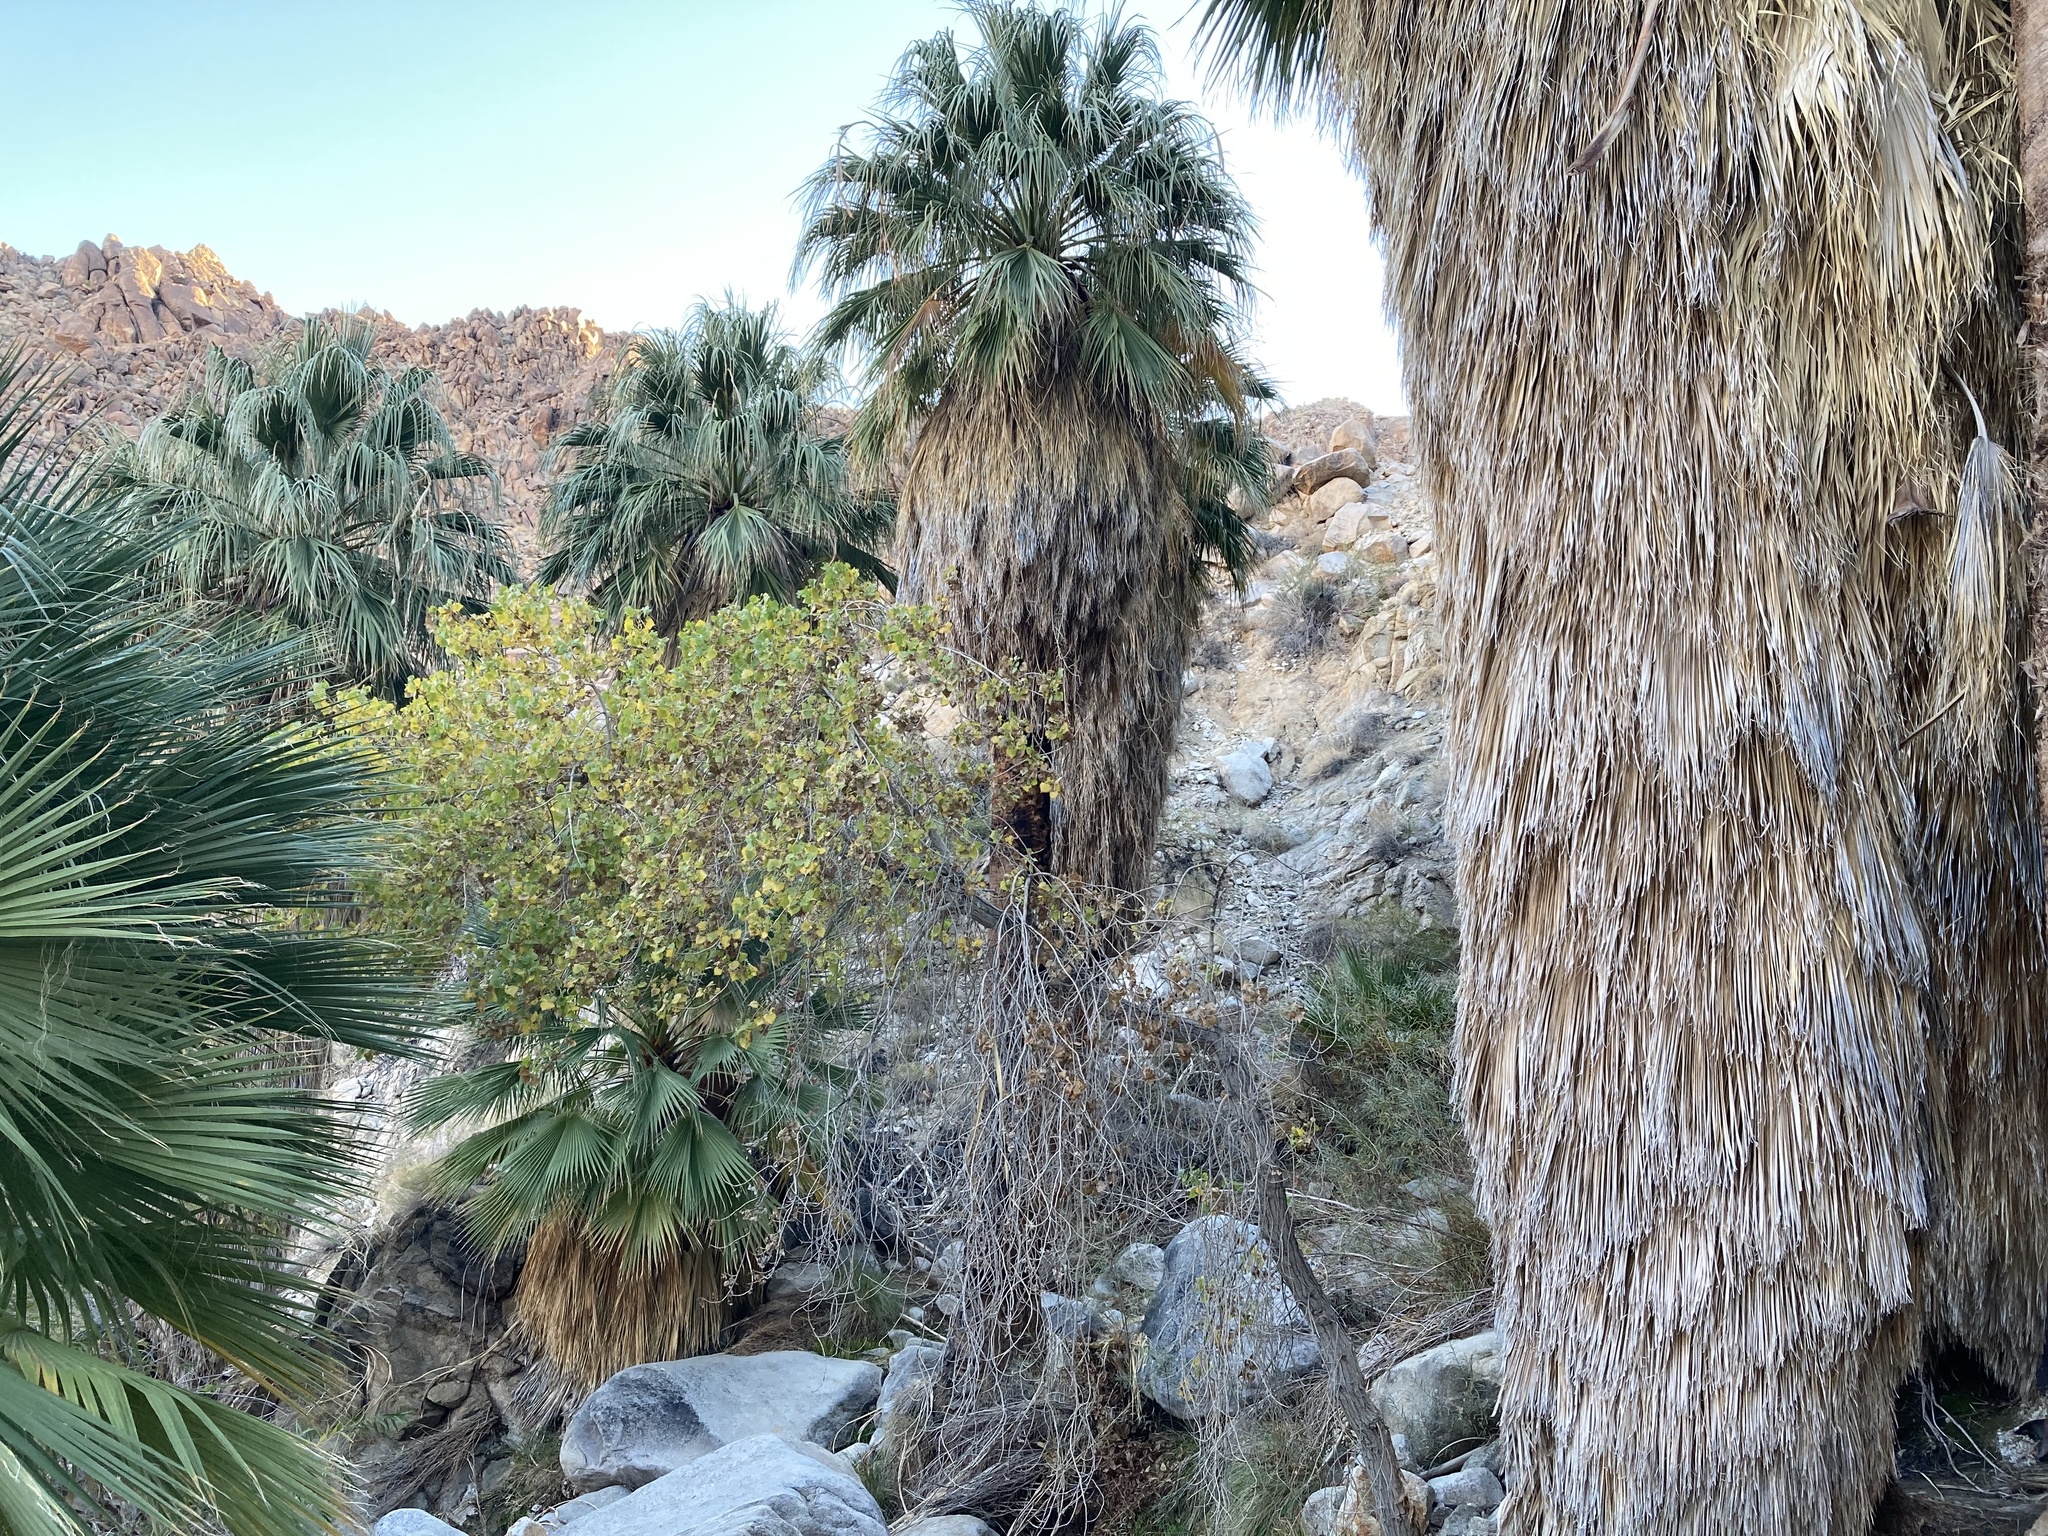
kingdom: Plantae
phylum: Tracheophyta
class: Magnoliopsida
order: Malpighiales
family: Salicaceae
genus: Populus
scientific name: Populus fremontii
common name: Fremont's cottonwood
